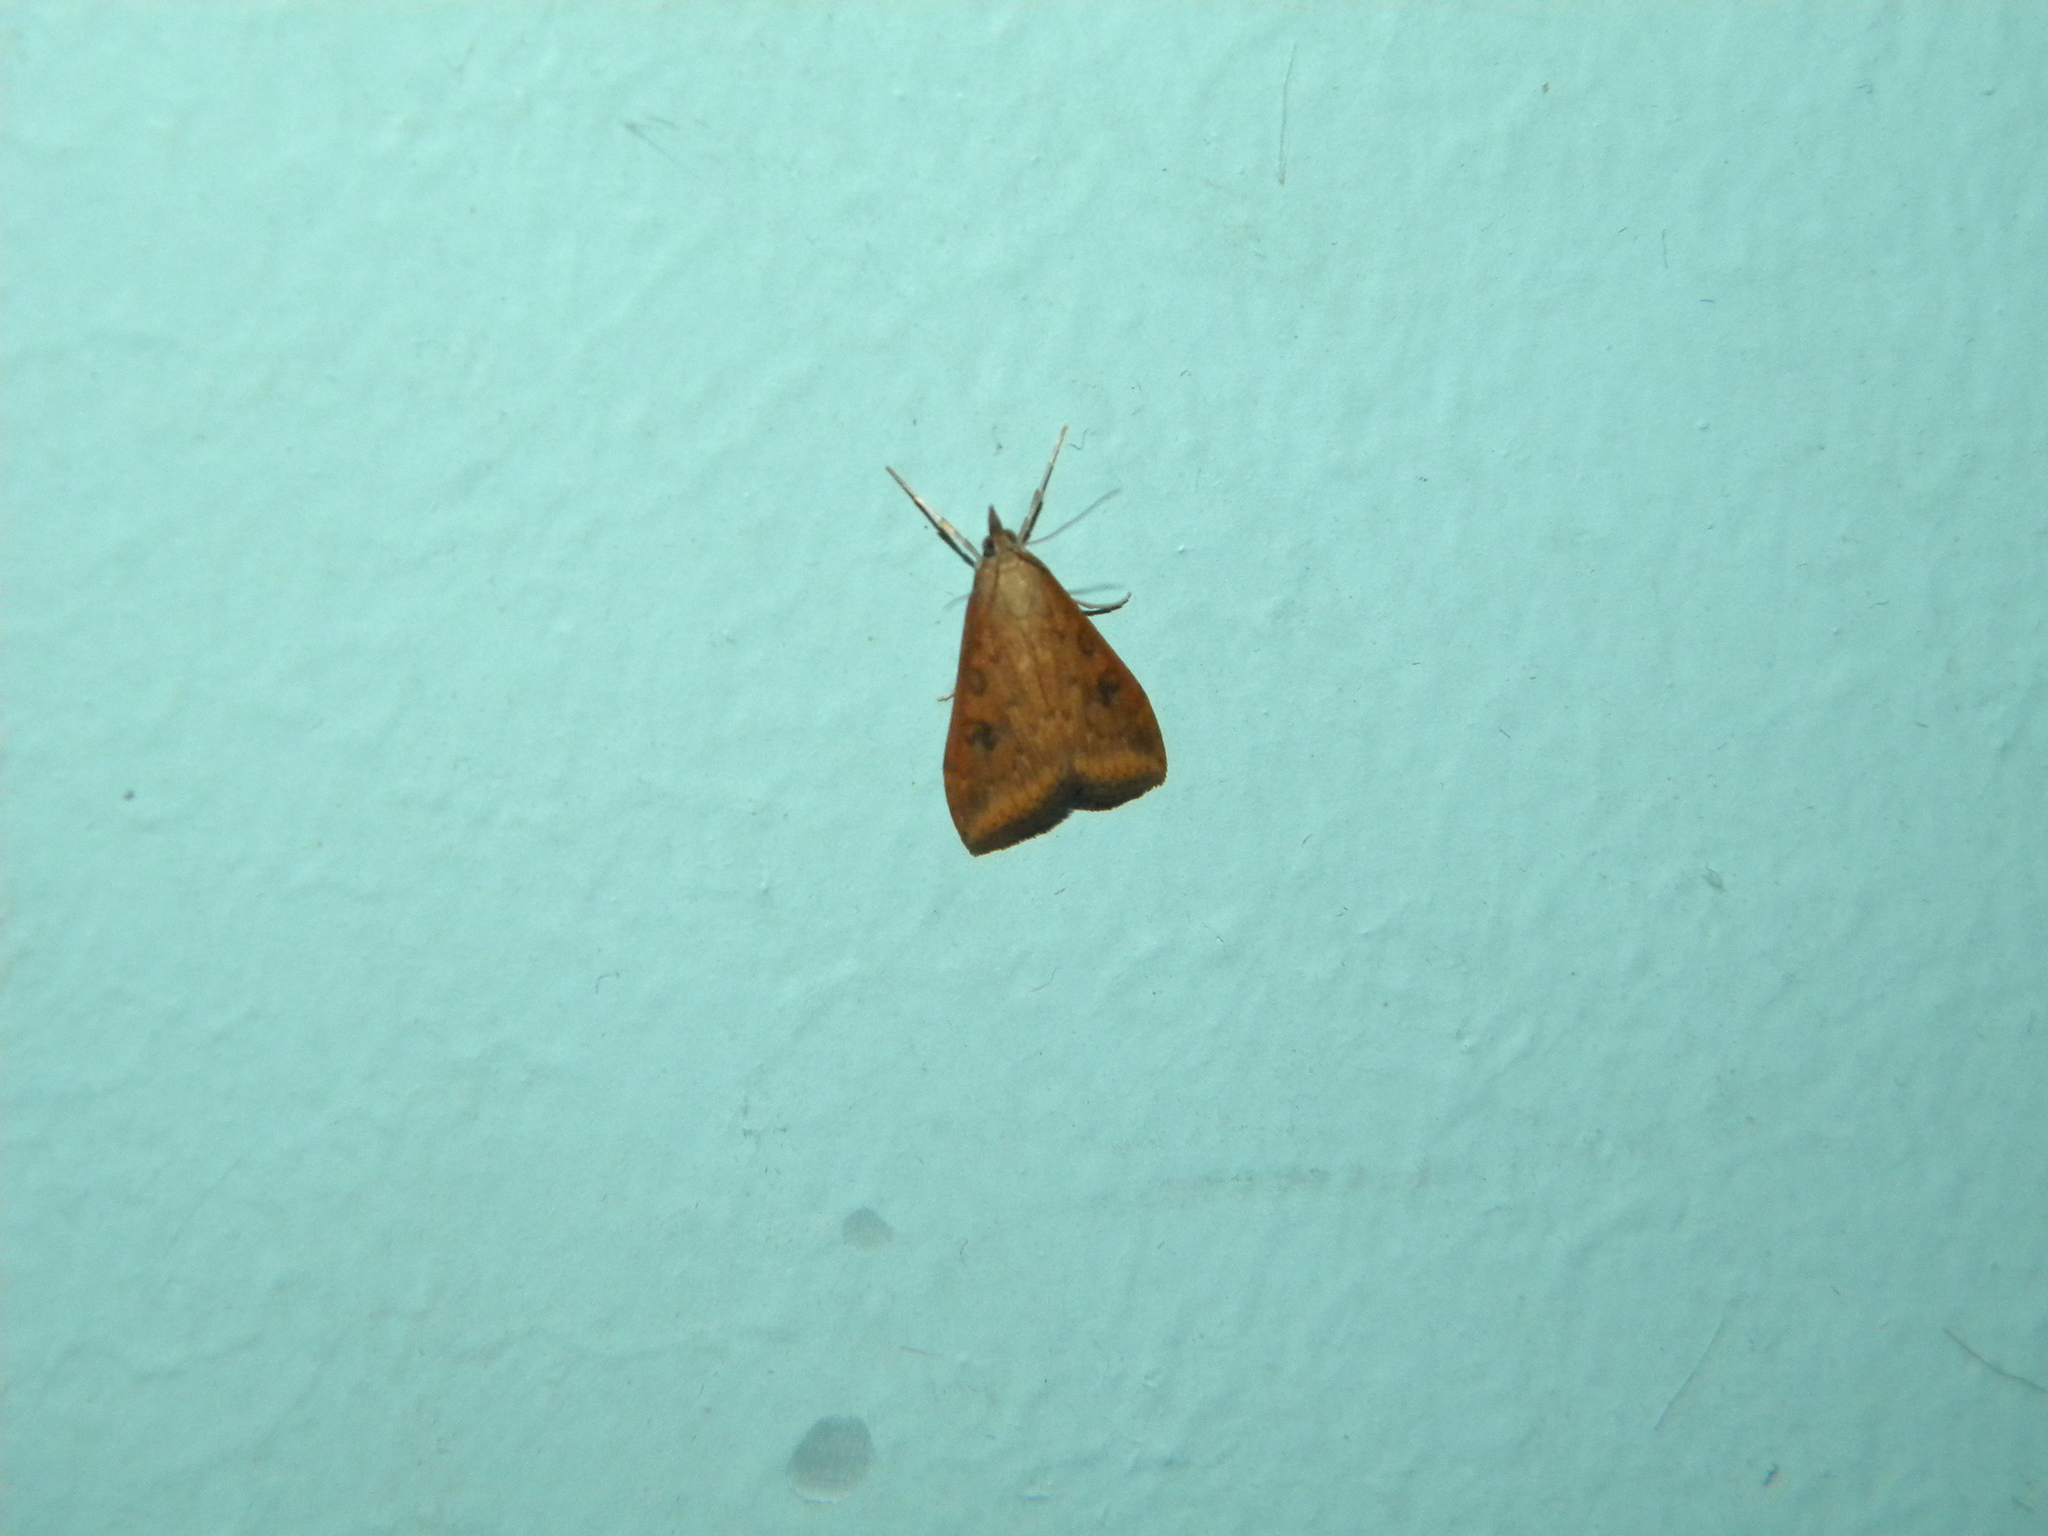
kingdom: Animalia
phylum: Arthropoda
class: Insecta
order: Lepidoptera
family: Crambidae
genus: Udea
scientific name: Udea ferrugalis
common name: Rusty dot
